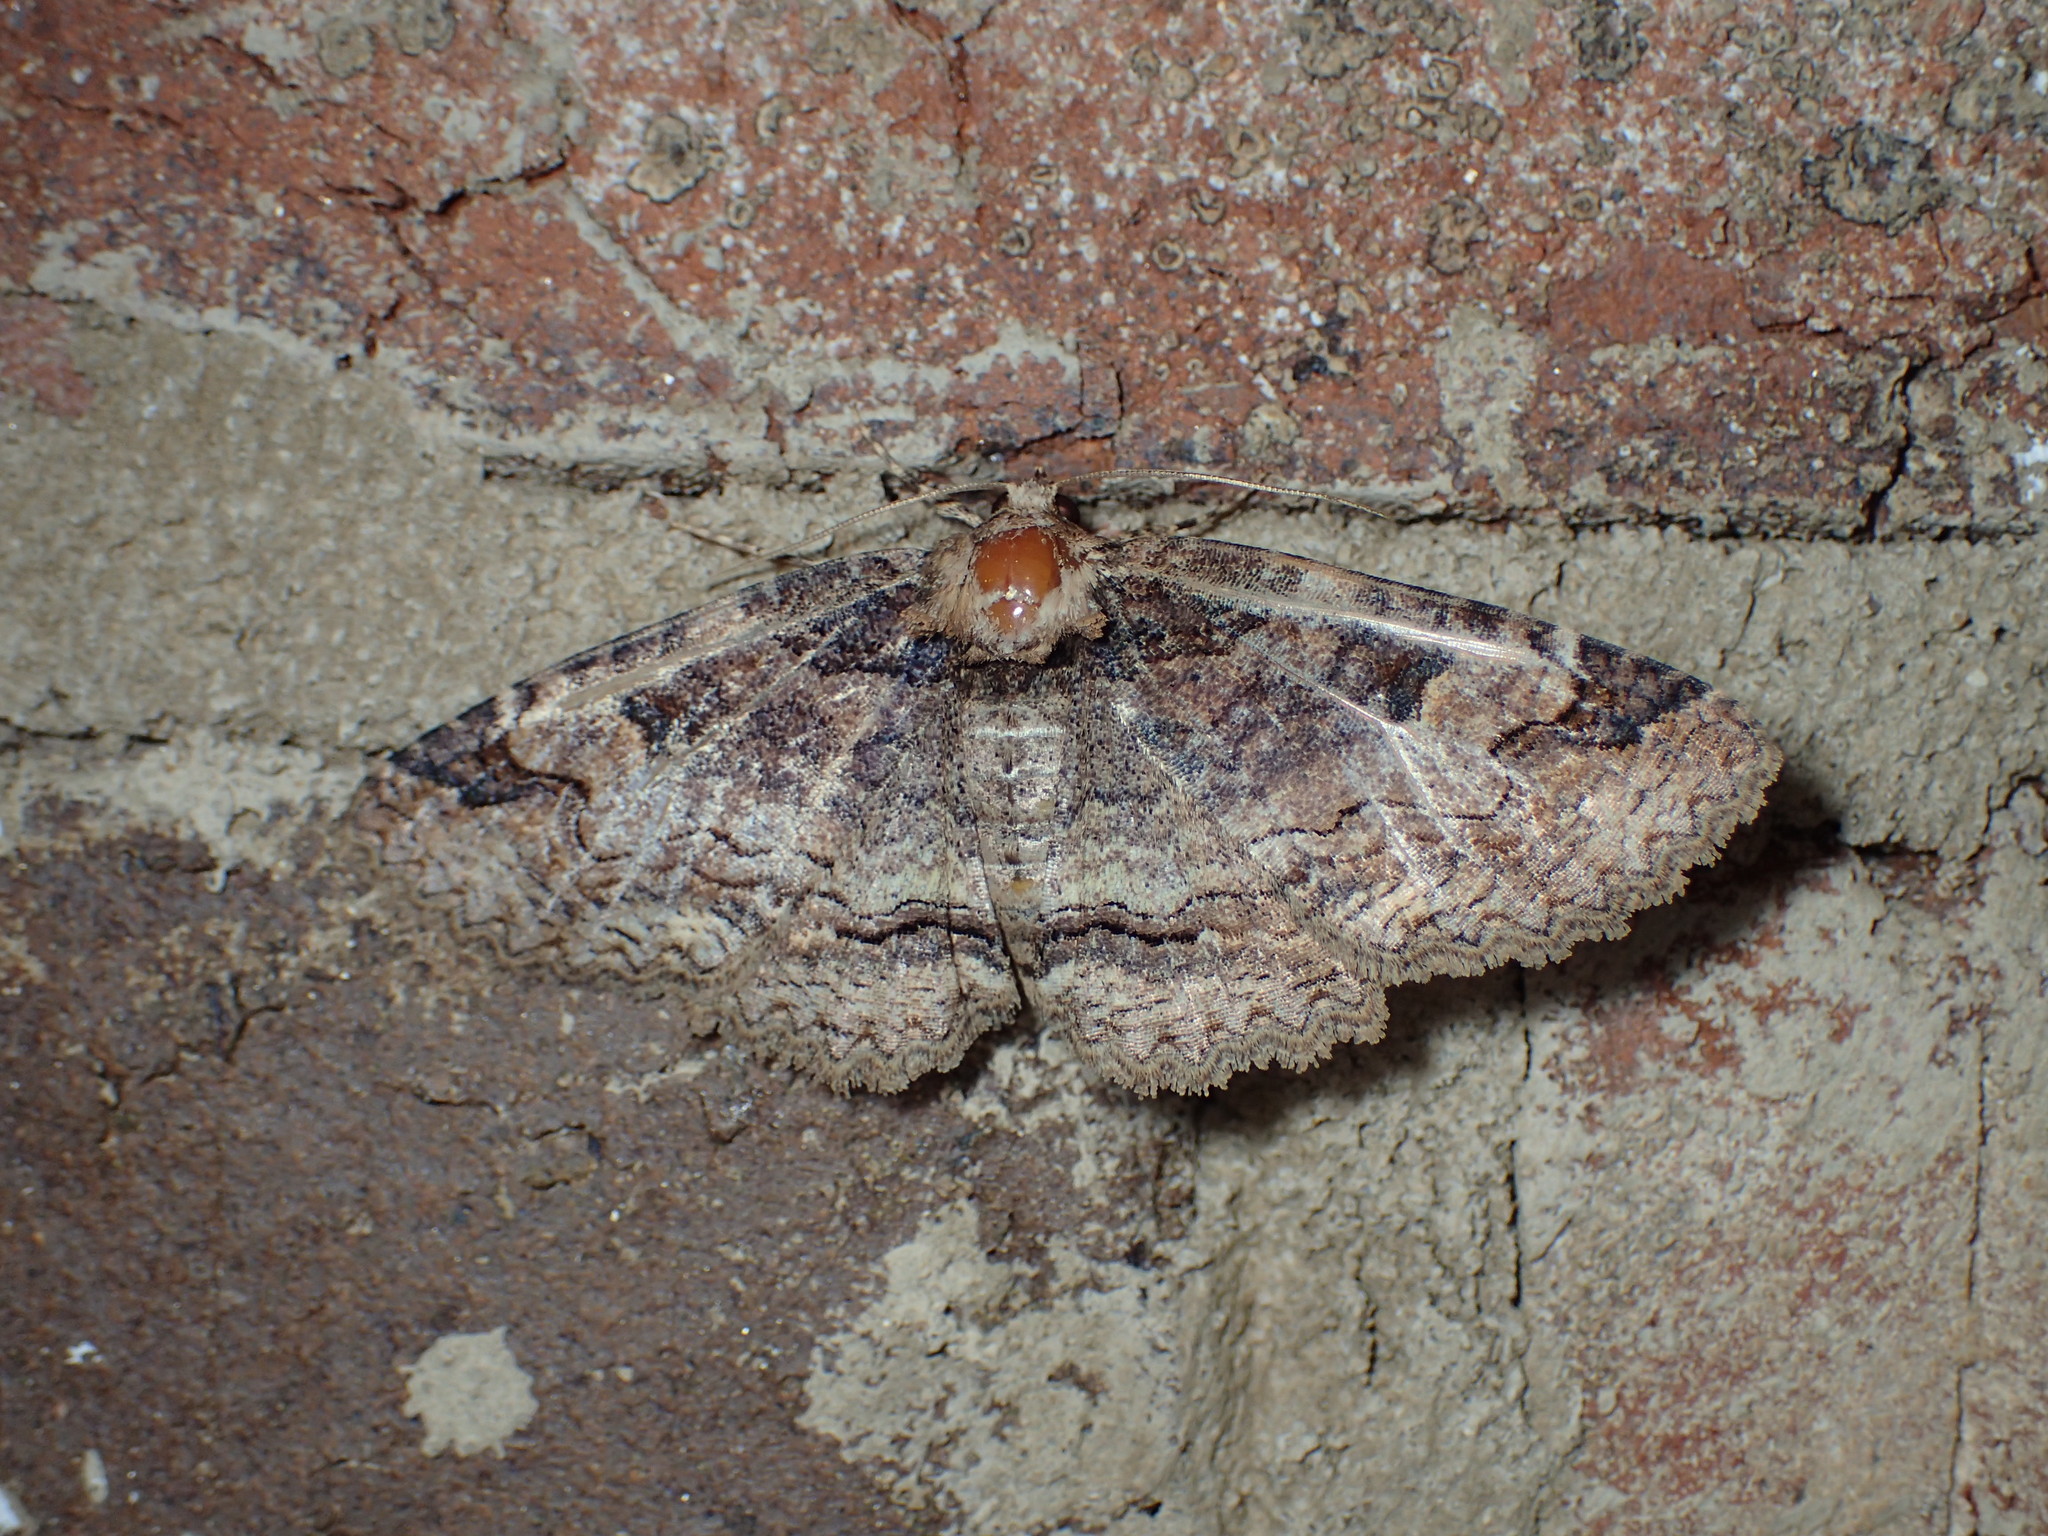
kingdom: Animalia
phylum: Arthropoda
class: Insecta
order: Lepidoptera
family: Erebidae
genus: Zale
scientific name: Zale minerea
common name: Colorful zale moth
